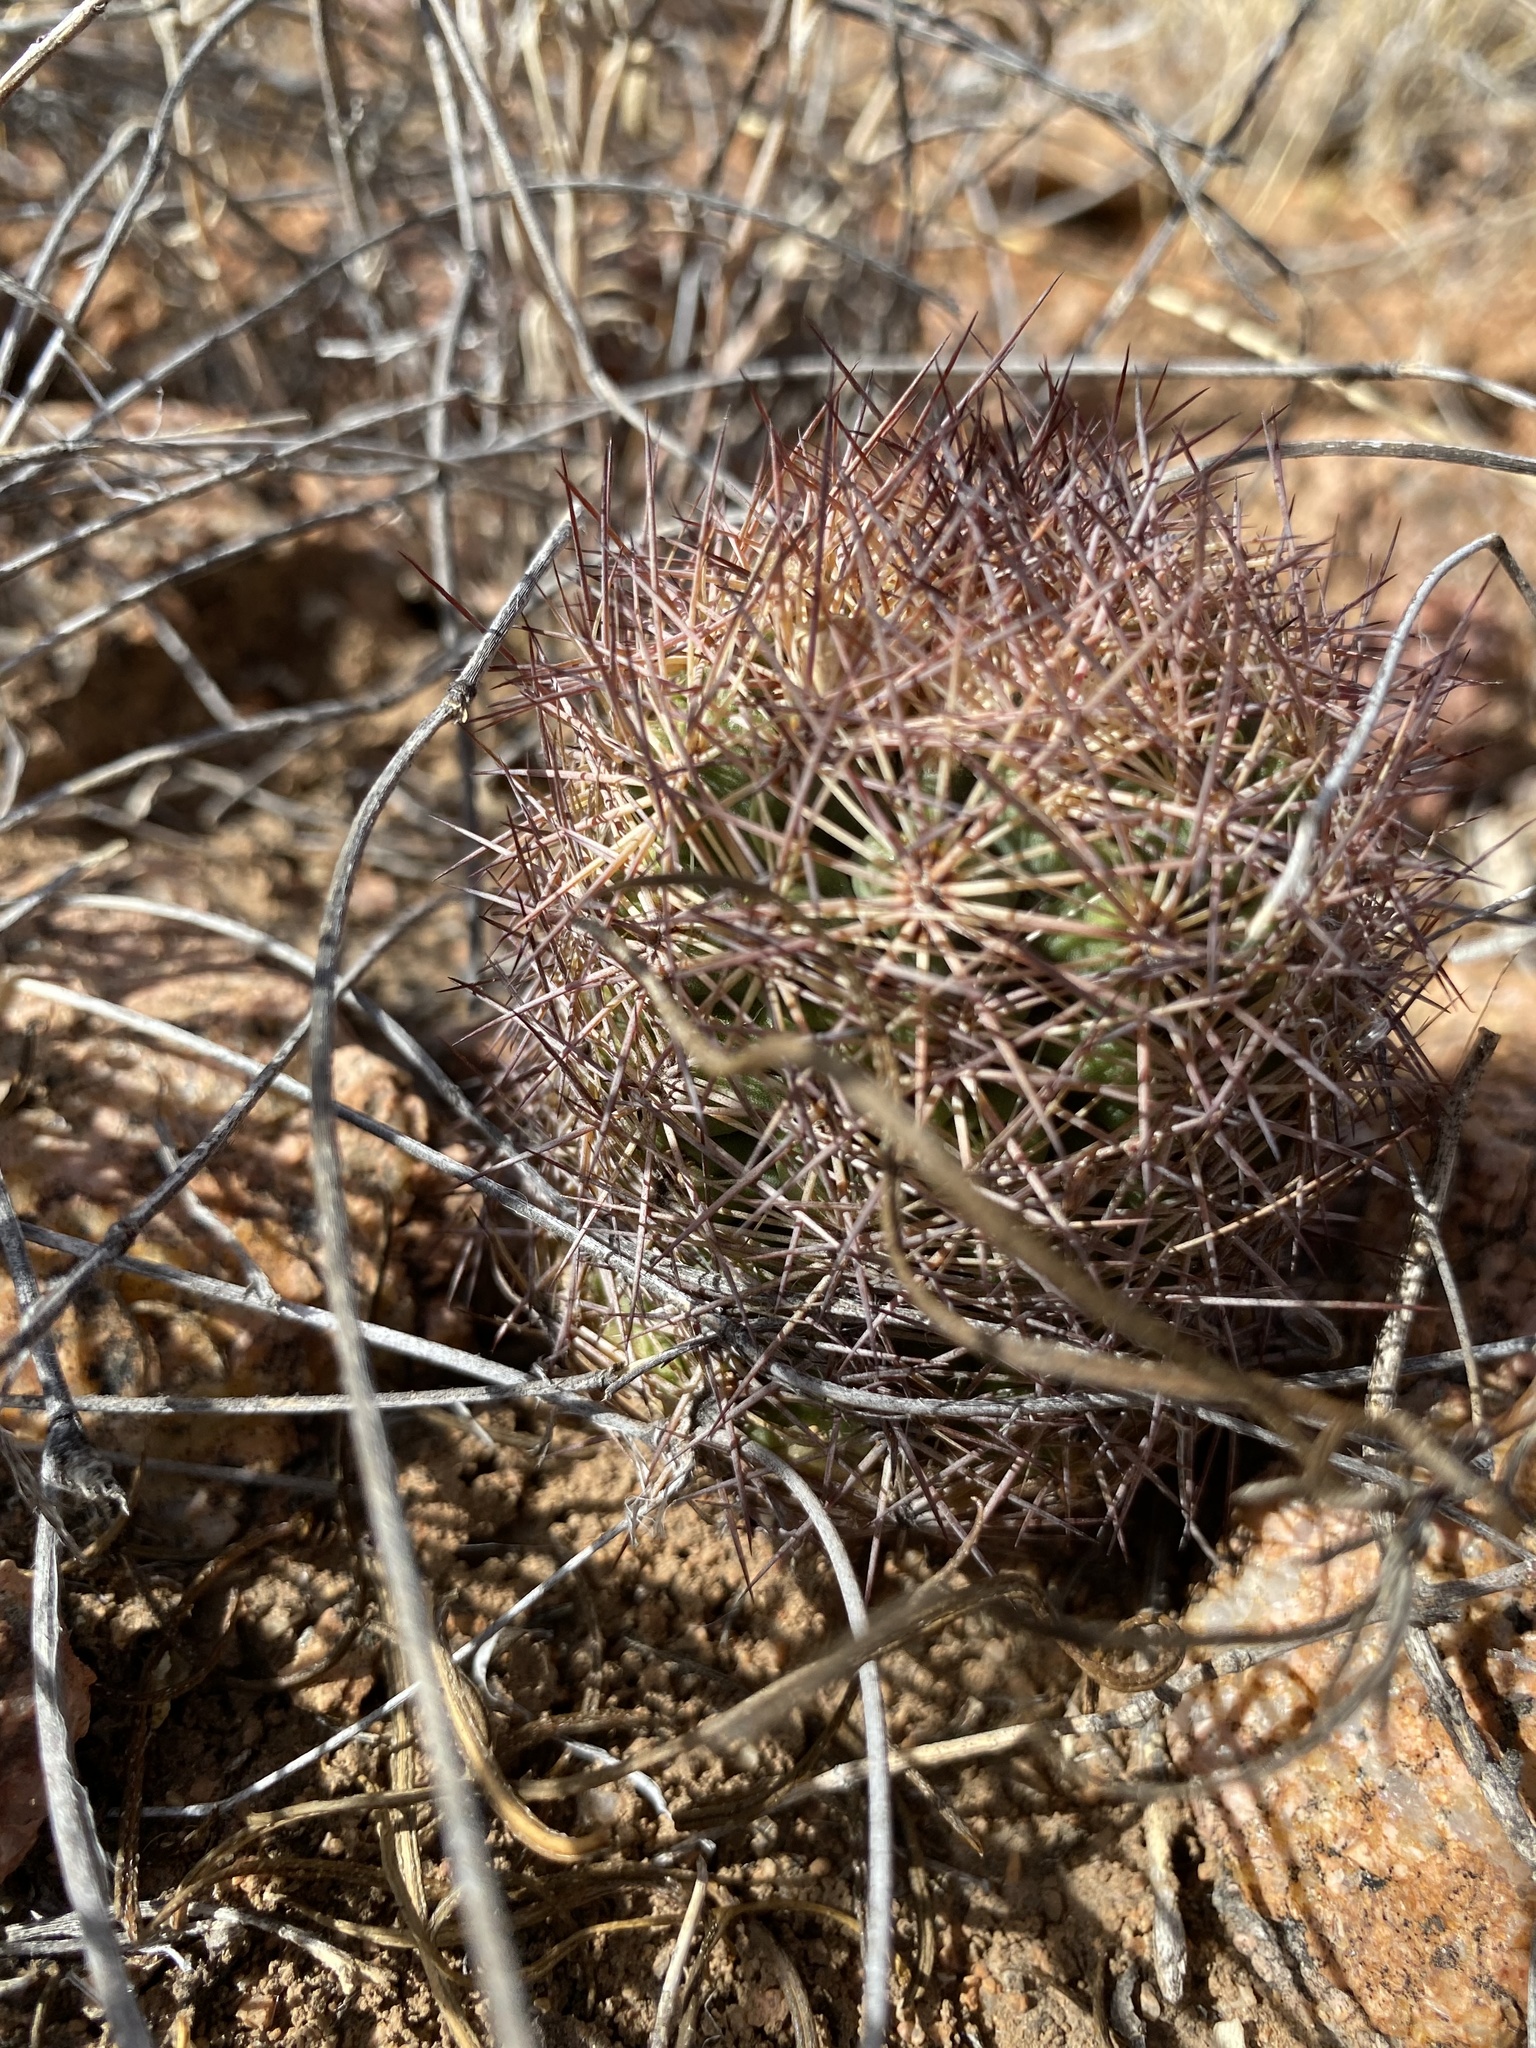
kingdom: Plantae
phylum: Tracheophyta
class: Magnoliopsida
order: Caryophyllales
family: Cactaceae
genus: Sclerocactus
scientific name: Sclerocactus intertextus
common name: White fish-hook cactus
